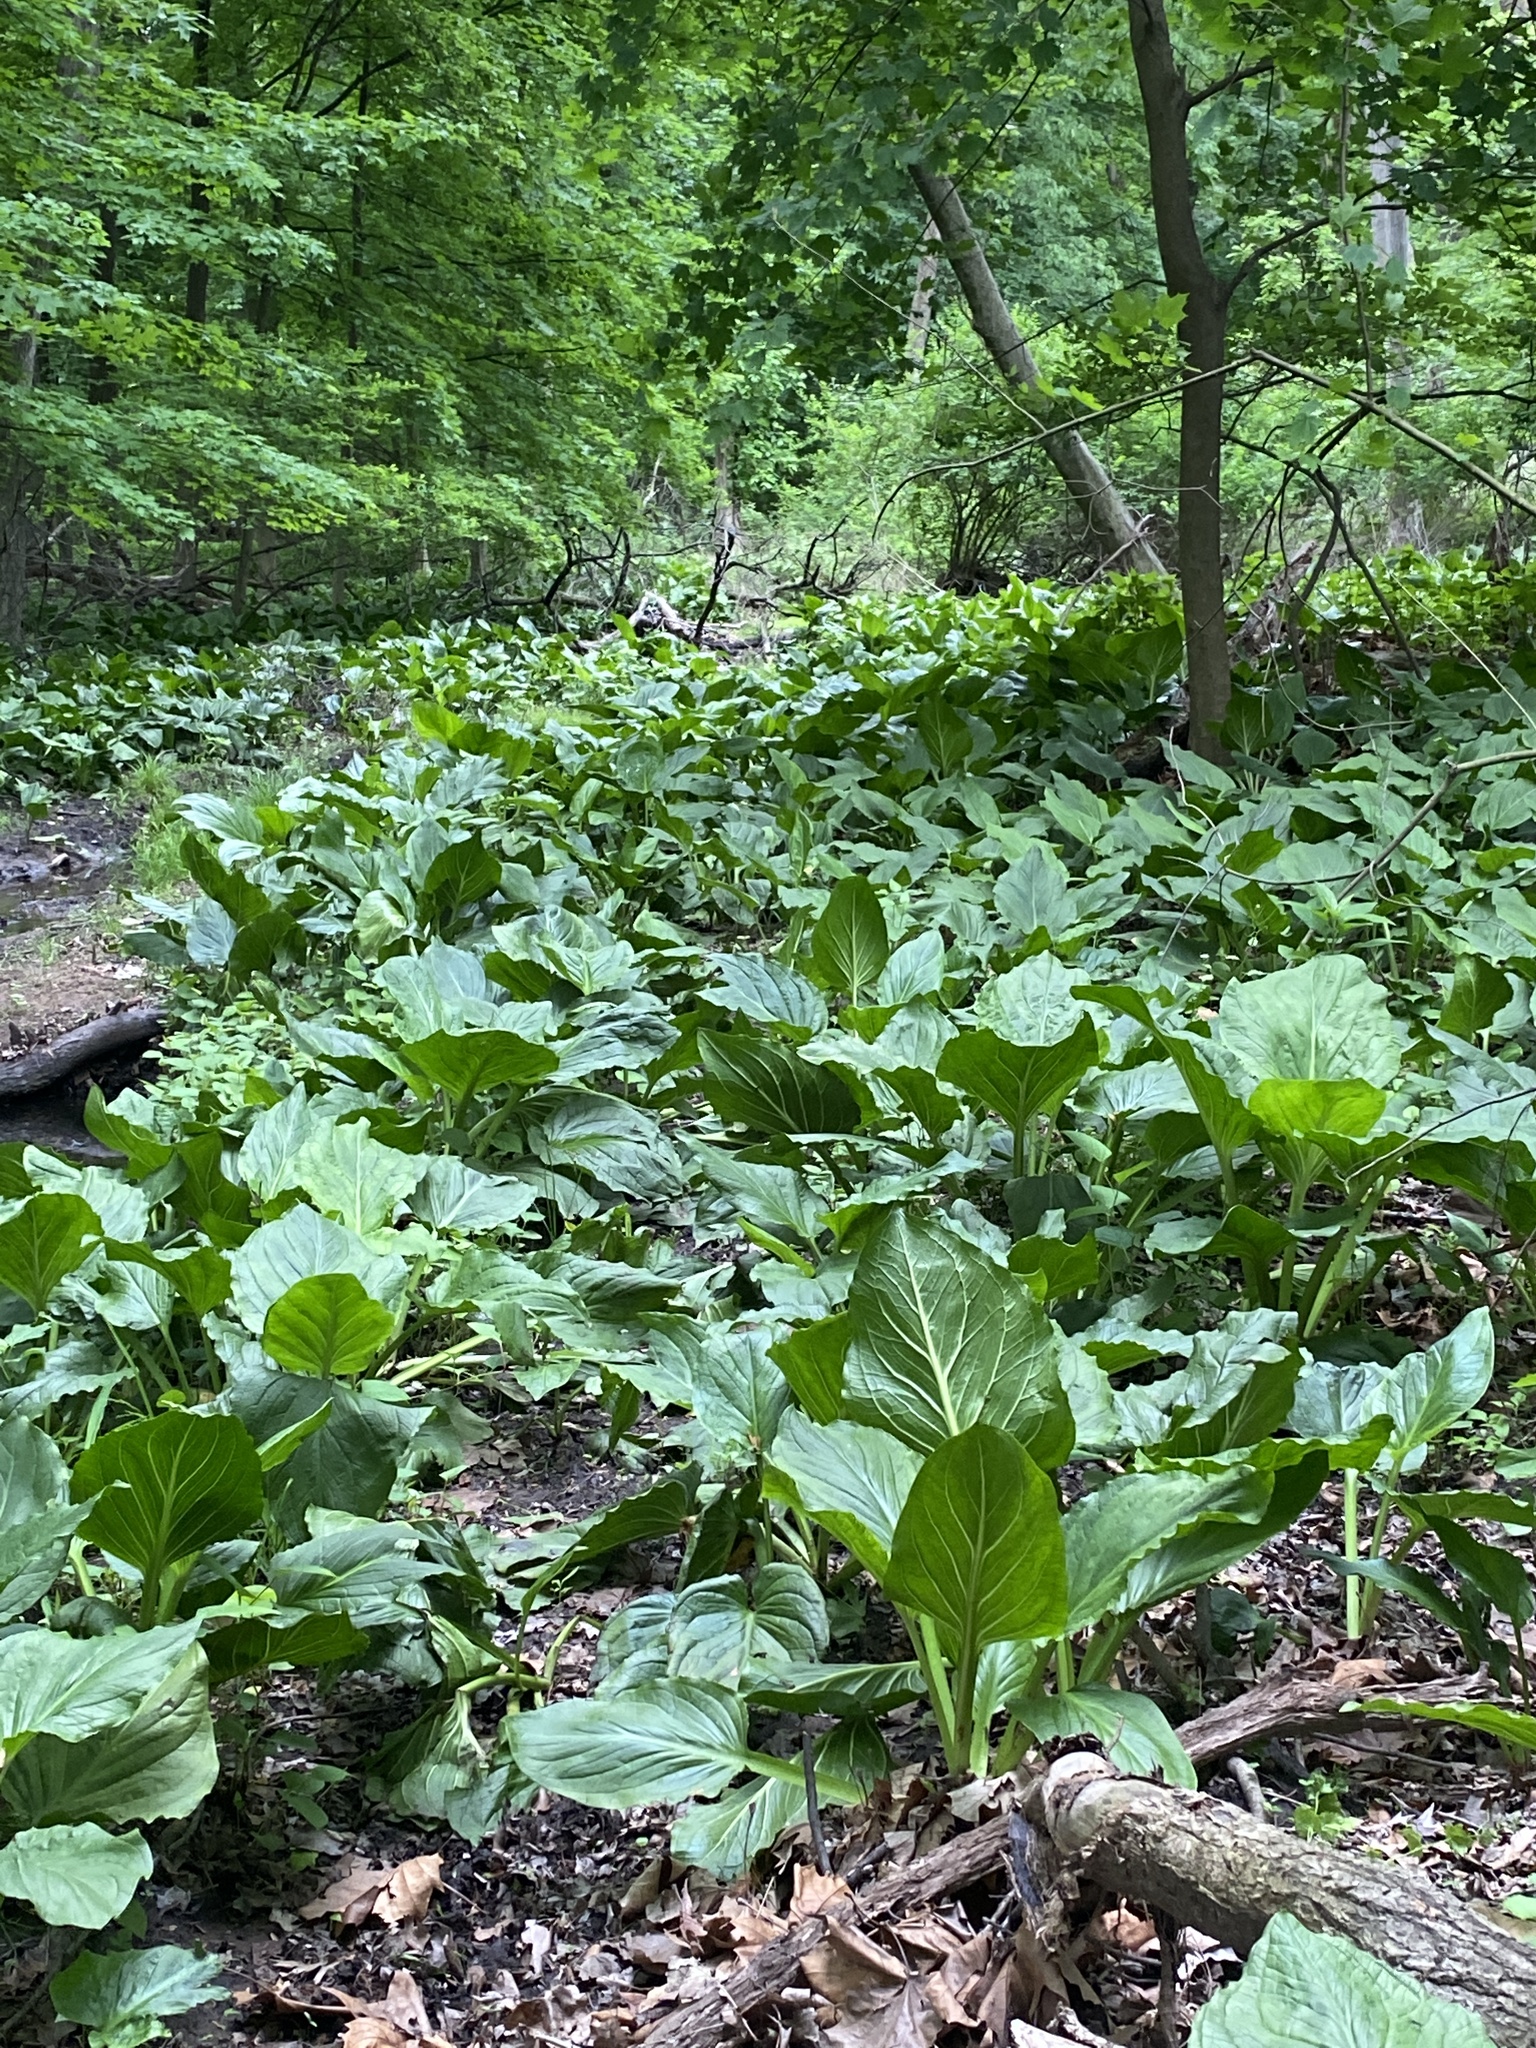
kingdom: Plantae
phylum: Tracheophyta
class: Liliopsida
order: Alismatales
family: Araceae
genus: Symplocarpus
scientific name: Symplocarpus foetidus
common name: Eastern skunk cabbage
